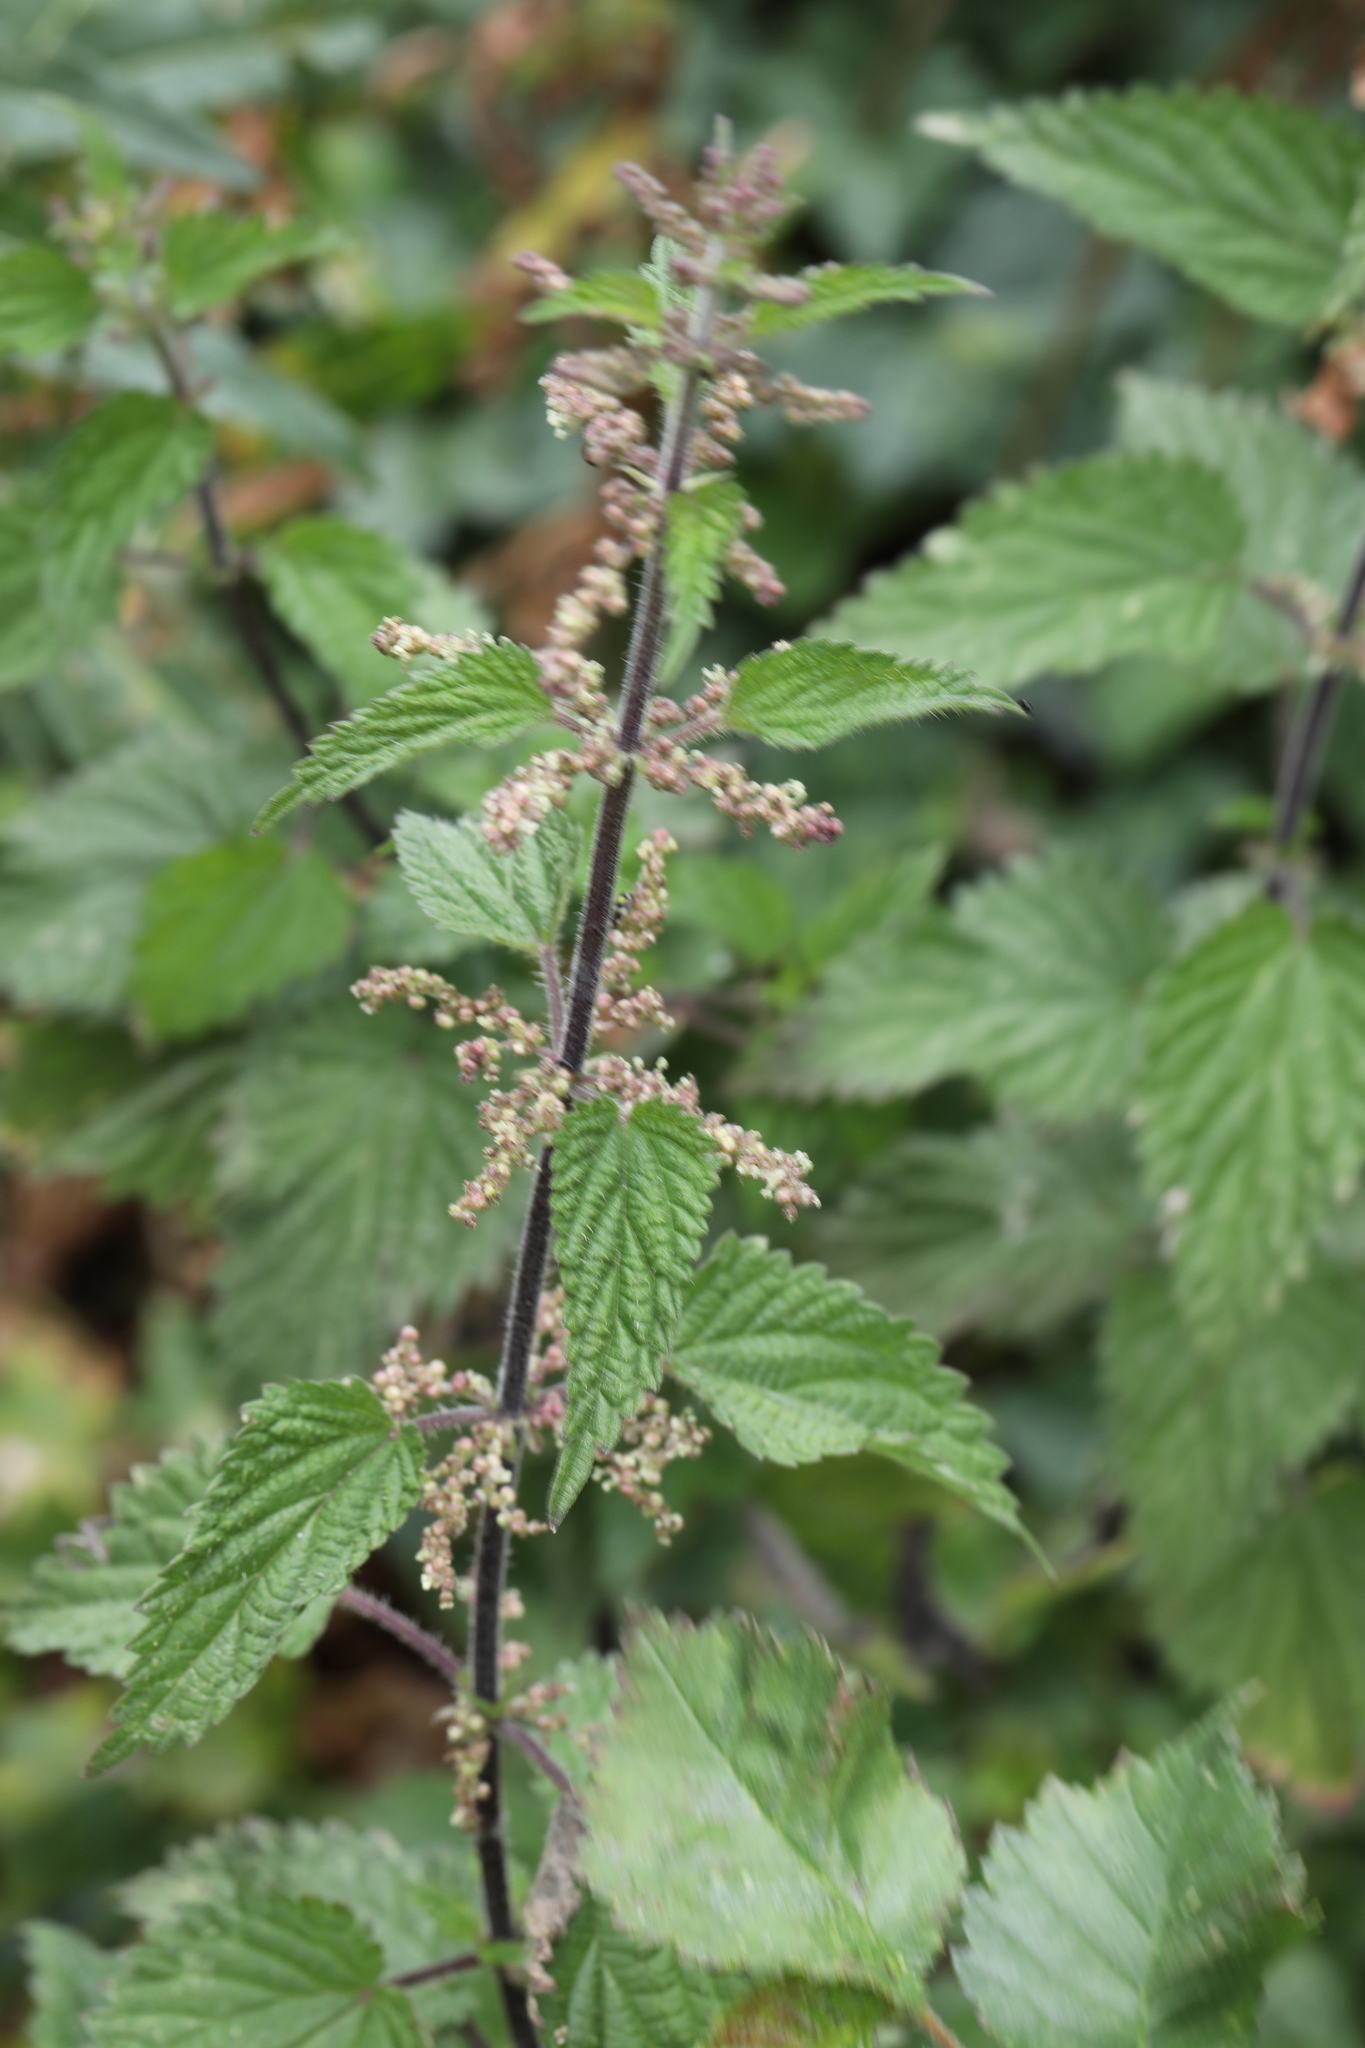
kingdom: Plantae
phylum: Tracheophyta
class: Magnoliopsida
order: Rosales
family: Urticaceae
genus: Urtica
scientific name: Urtica dioica
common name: Common nettle
